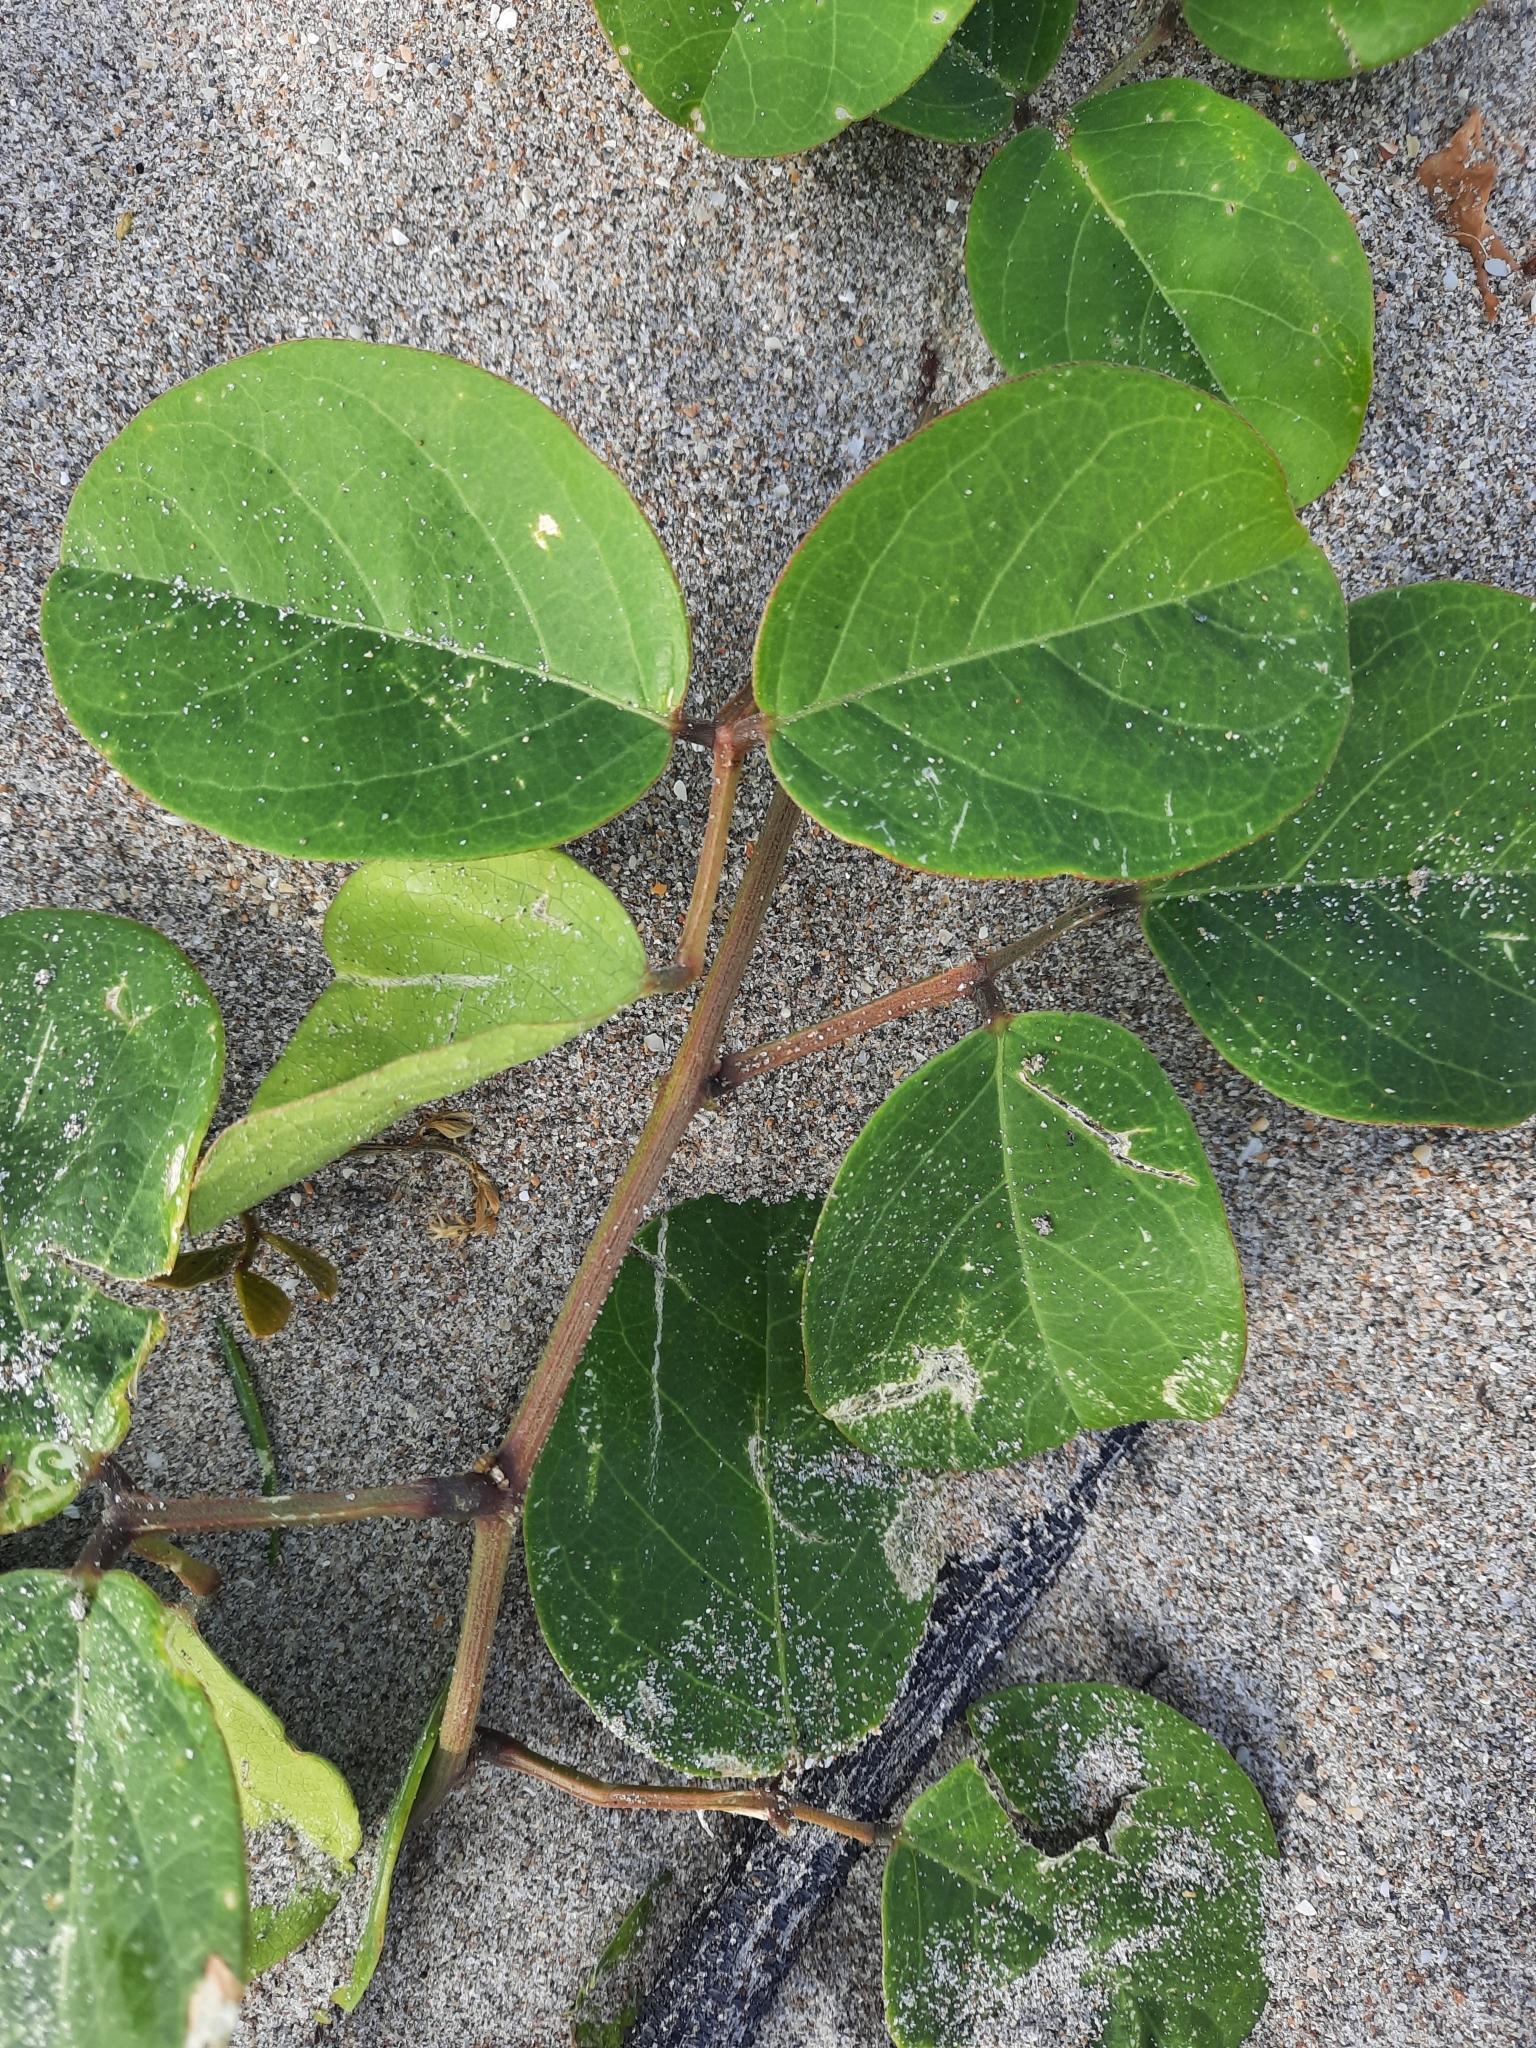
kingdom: Plantae
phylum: Tracheophyta
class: Magnoliopsida
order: Fabales
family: Fabaceae
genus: Canavalia
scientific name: Canavalia rosea
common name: Beach-bean
